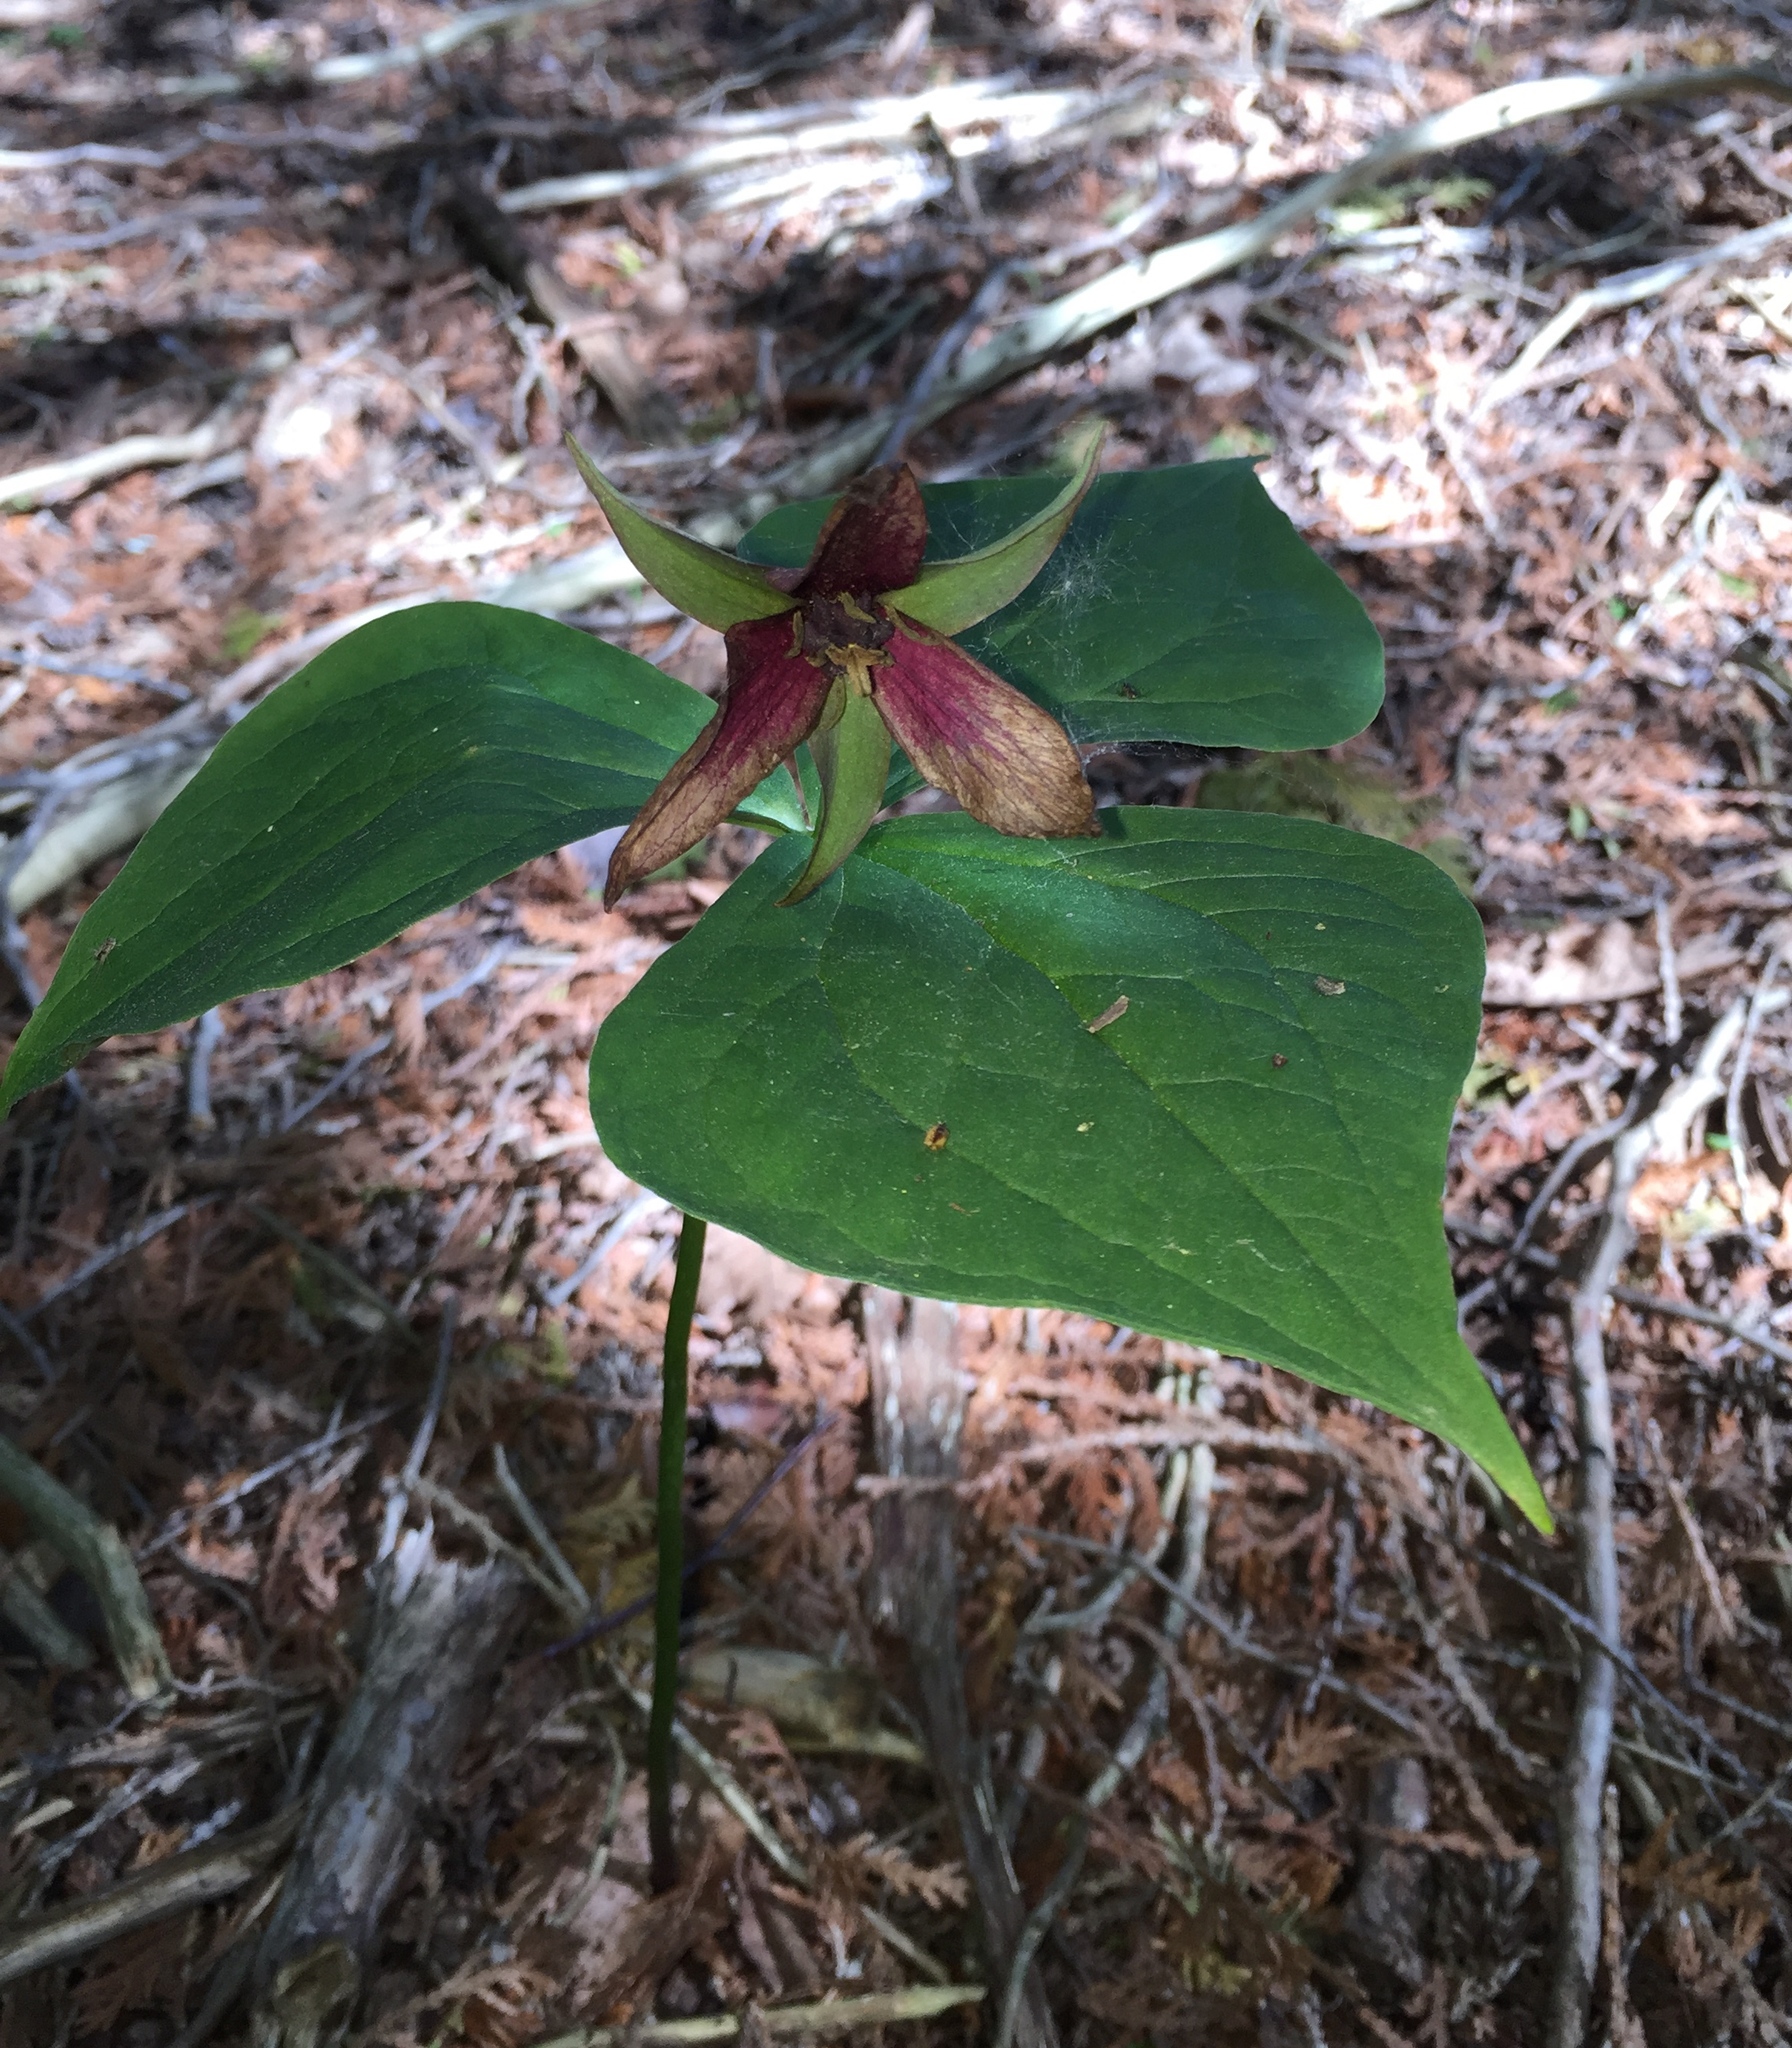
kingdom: Plantae
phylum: Tracheophyta
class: Liliopsida
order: Liliales
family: Melanthiaceae
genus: Trillium
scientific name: Trillium erectum
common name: Purple trillium
